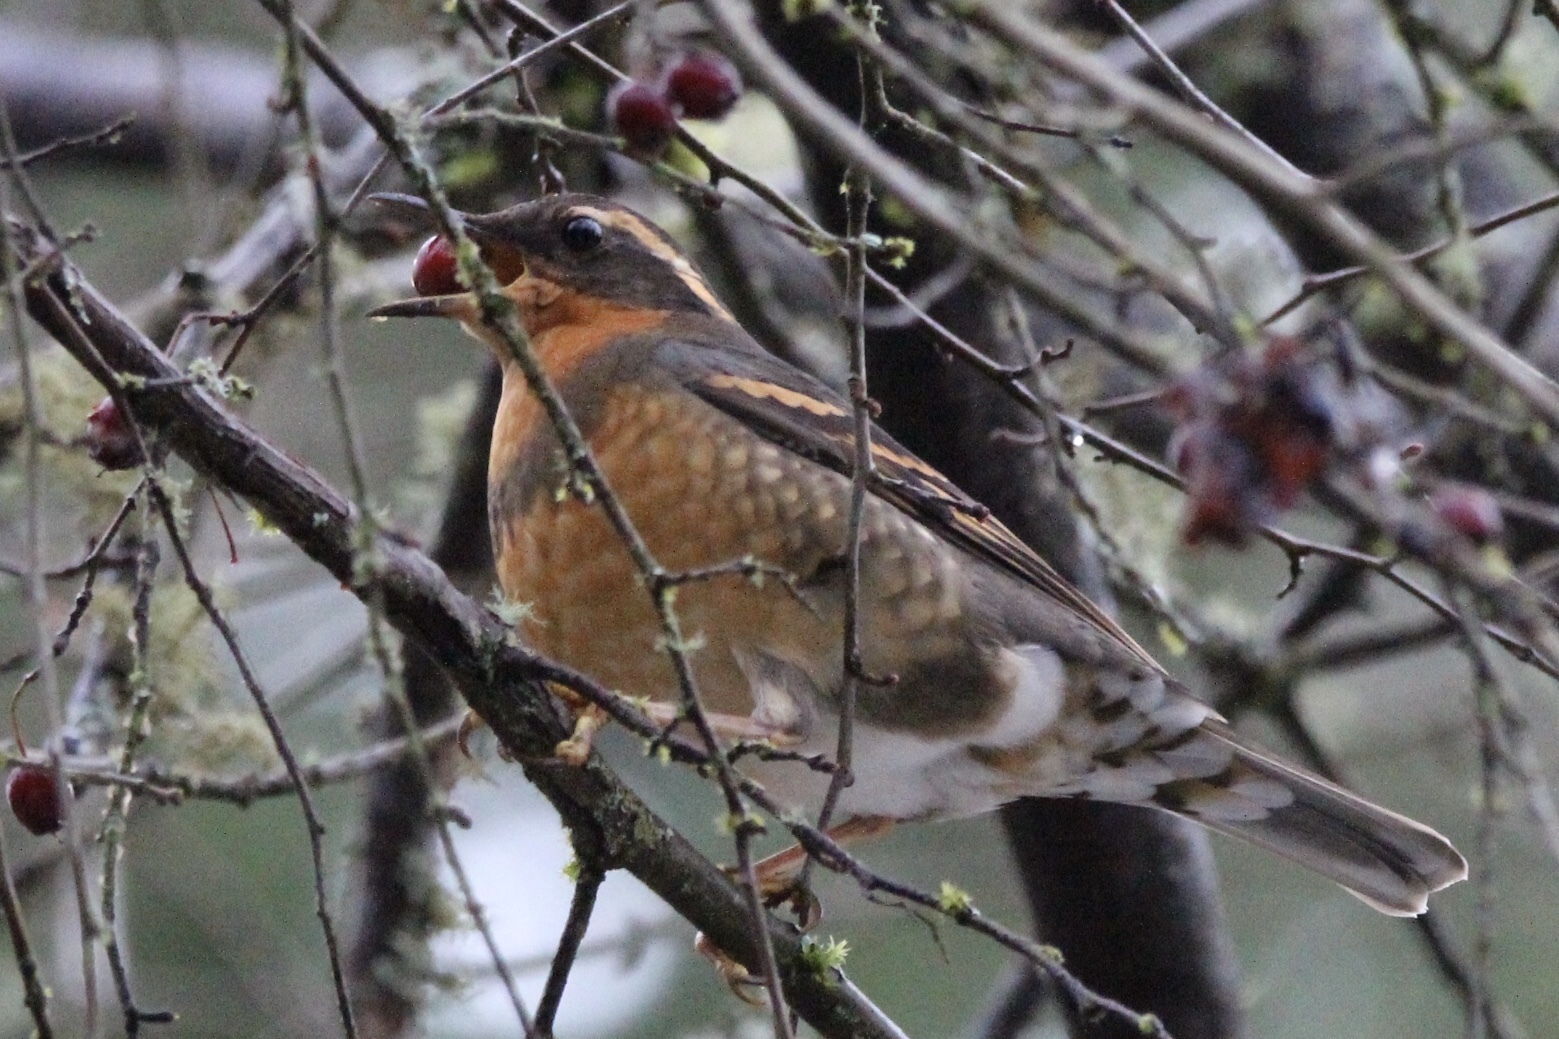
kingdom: Animalia
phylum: Chordata
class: Aves
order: Passeriformes
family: Turdidae
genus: Ixoreus
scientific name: Ixoreus naevius
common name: Varied thrush
